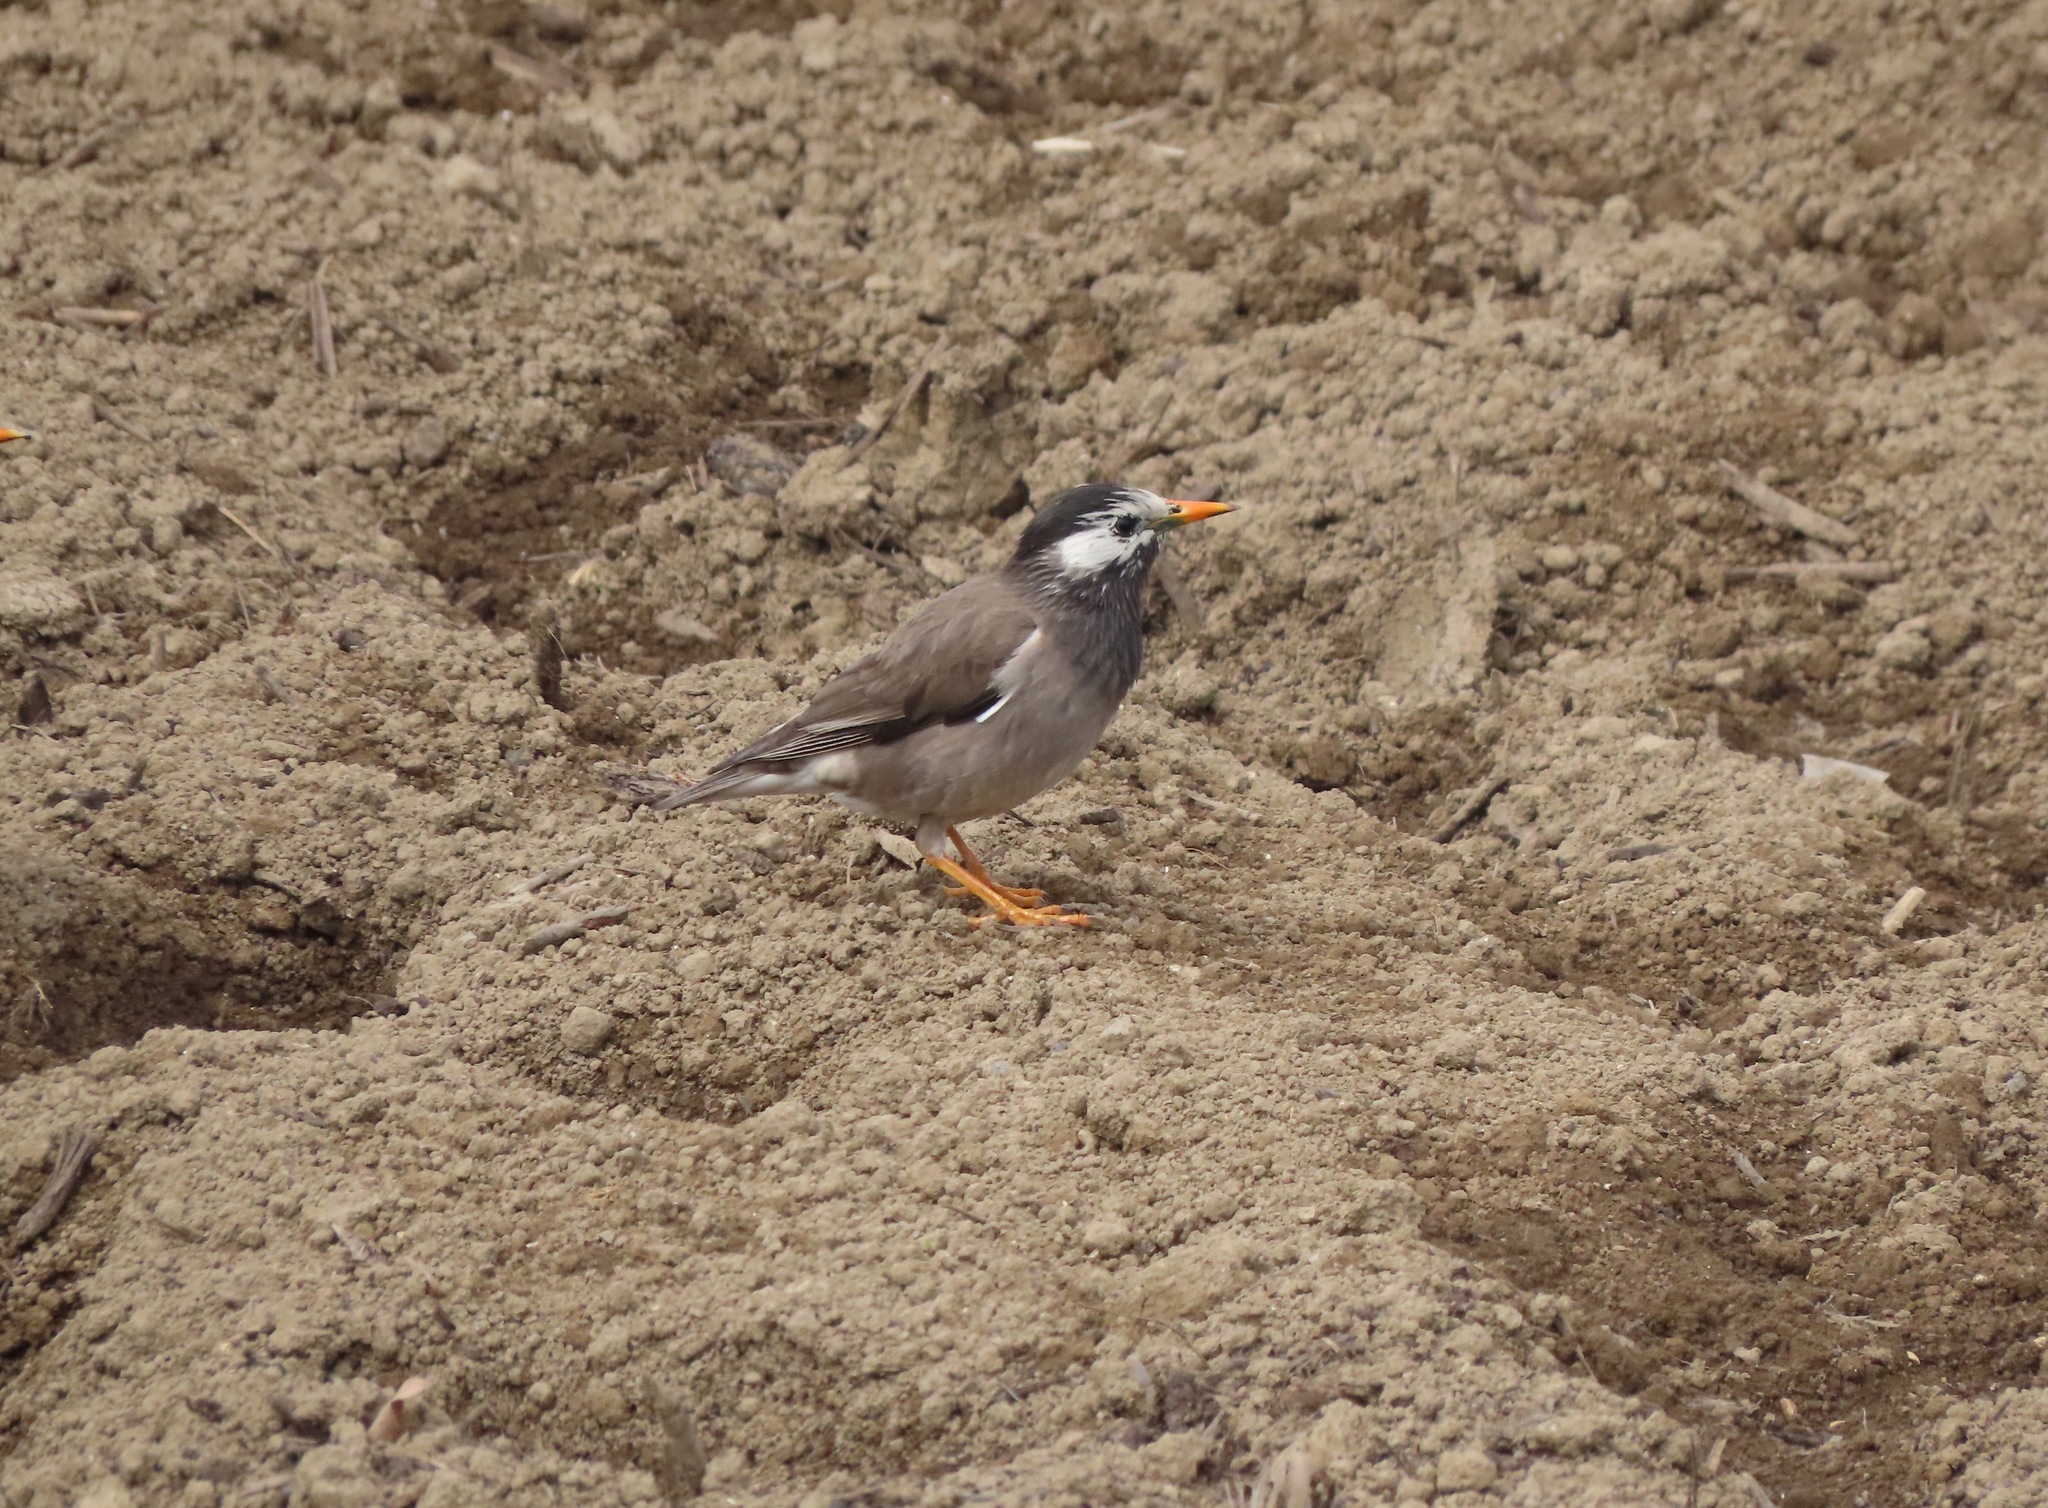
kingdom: Animalia
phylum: Chordata
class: Aves
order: Passeriformes
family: Sturnidae
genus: Spodiopsar
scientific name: Spodiopsar cineraceus
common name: White-cheeked starling
